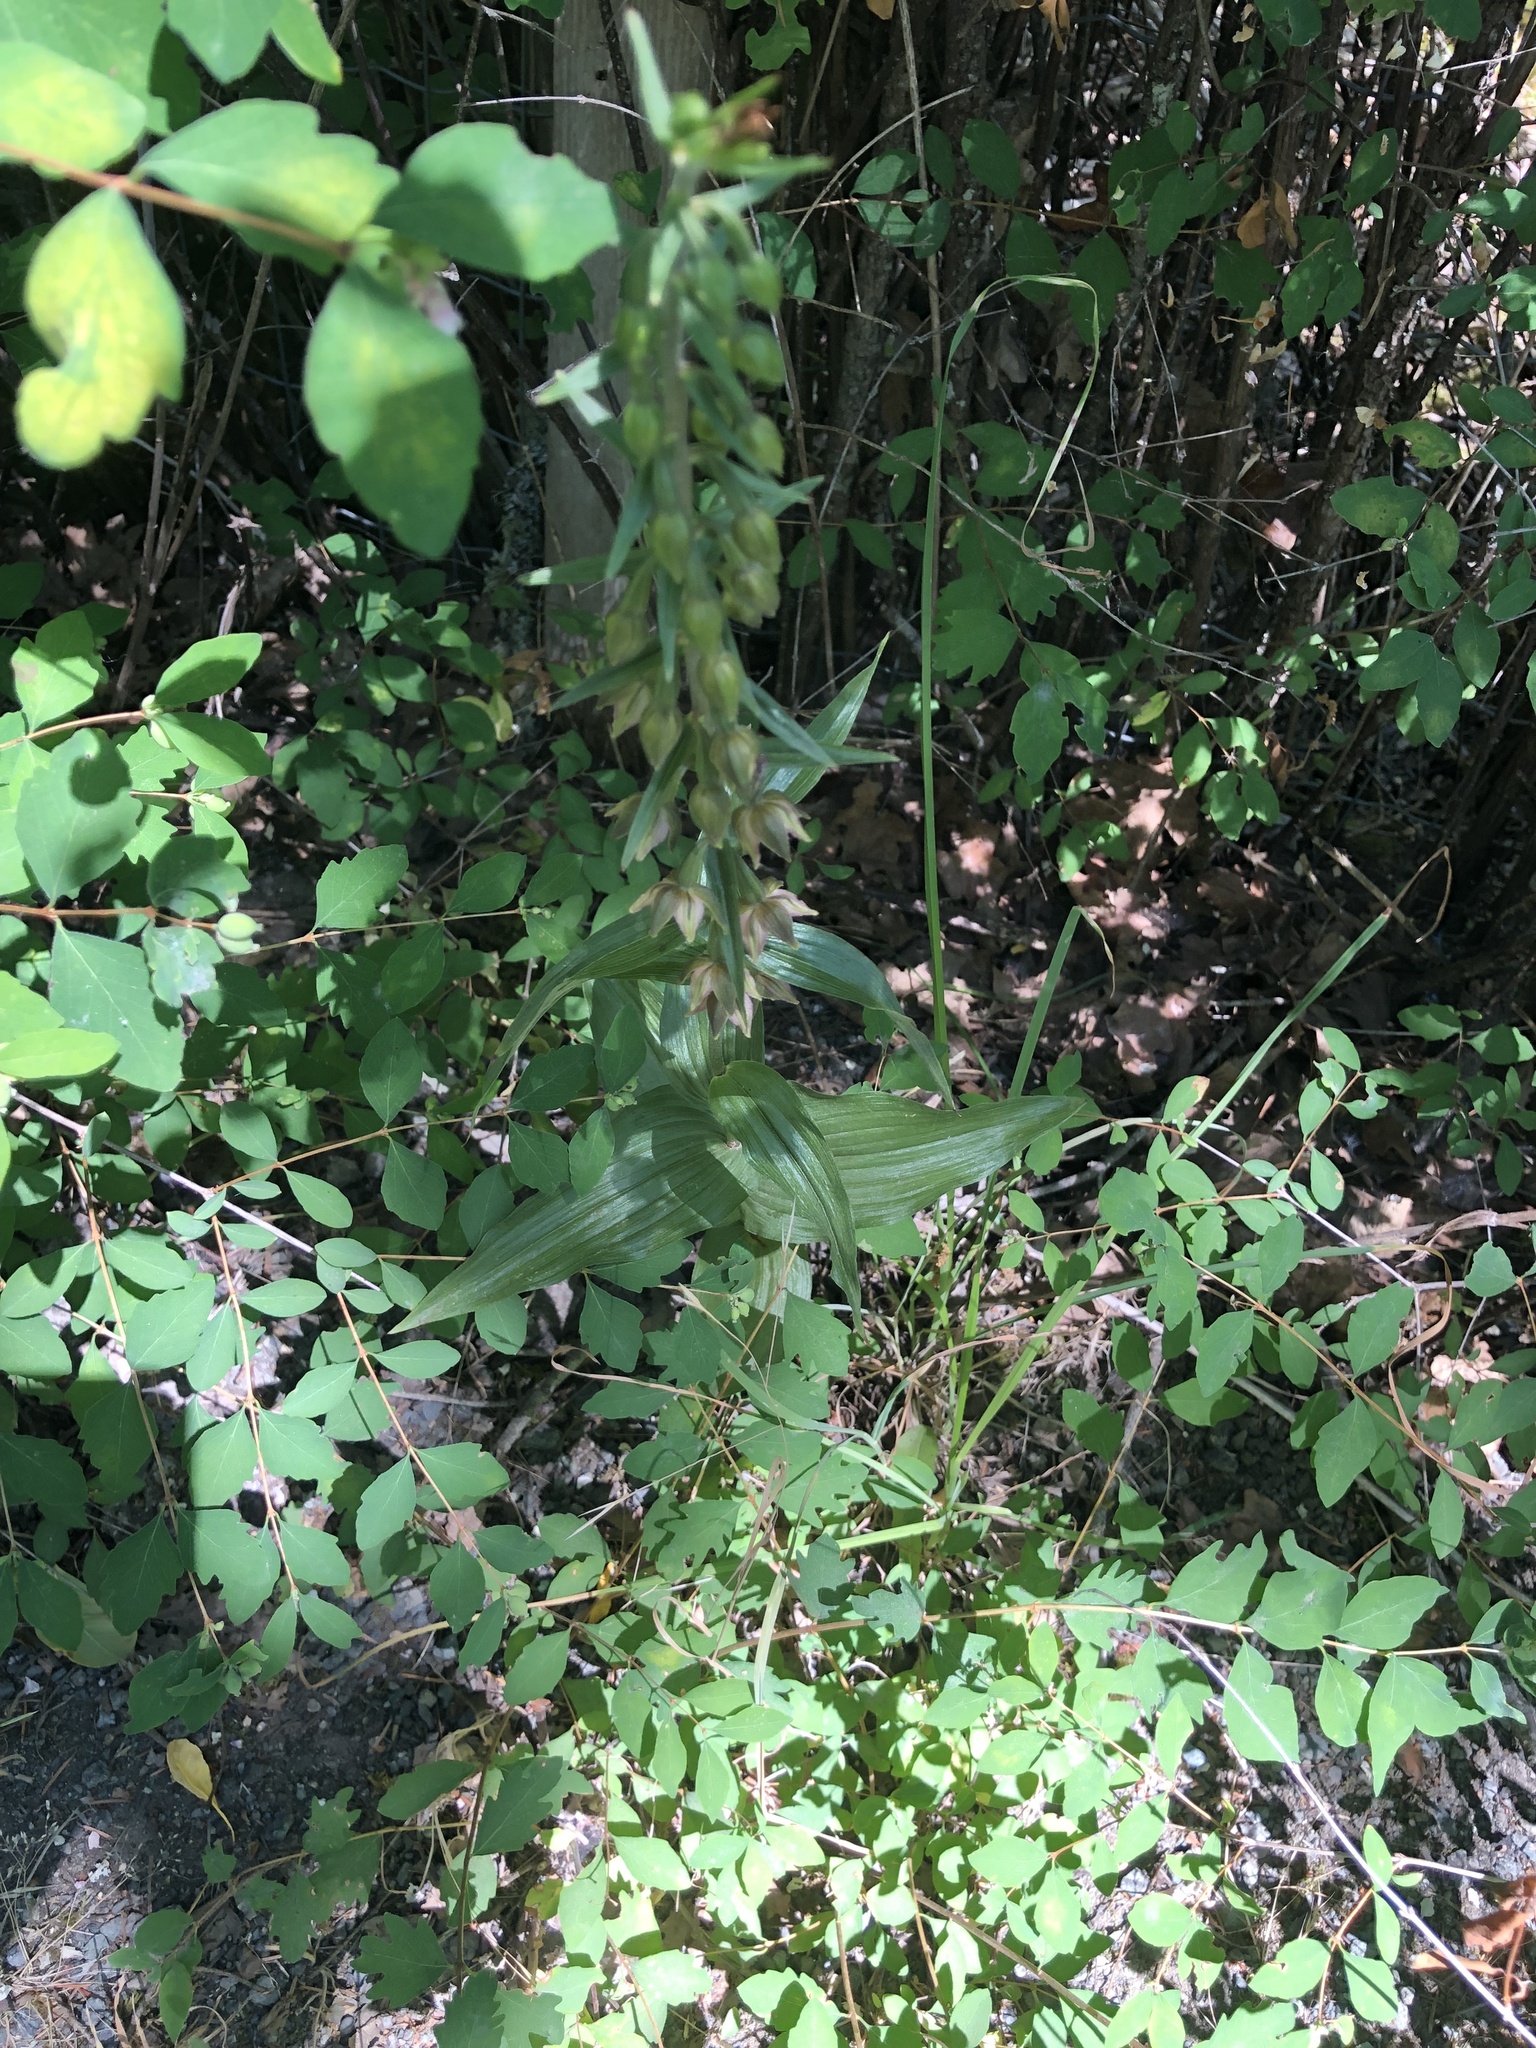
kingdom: Plantae
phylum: Tracheophyta
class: Liliopsida
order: Asparagales
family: Orchidaceae
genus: Epipactis
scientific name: Epipactis helleborine
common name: Broad-leaved helleborine
